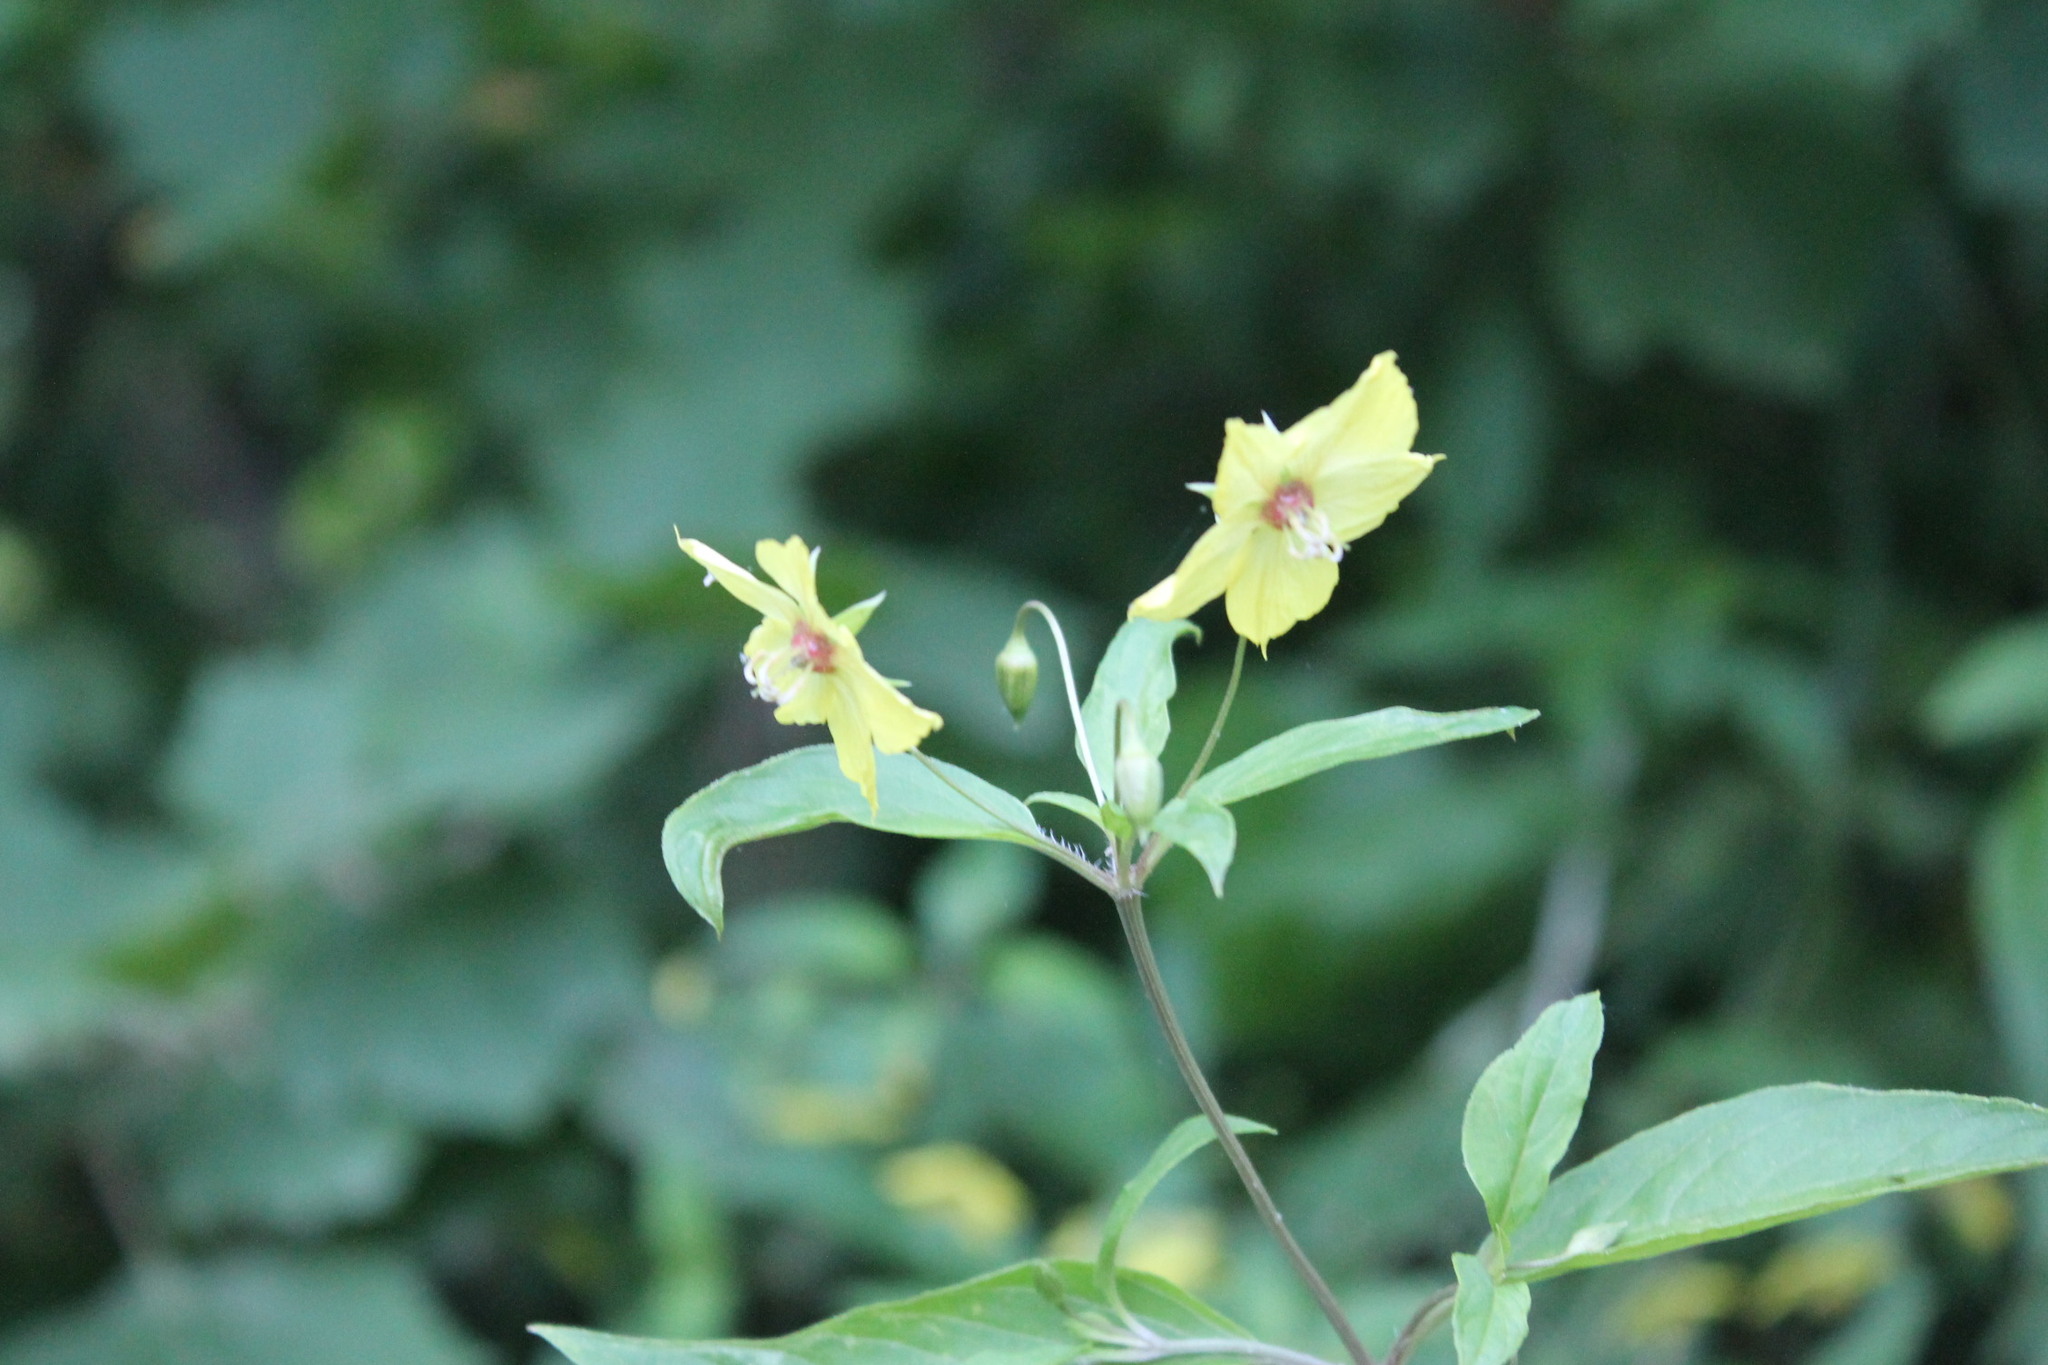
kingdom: Plantae
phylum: Tracheophyta
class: Magnoliopsida
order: Ericales
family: Primulaceae
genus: Lysimachia
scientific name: Lysimachia ciliata
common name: Fringed loosestrife
